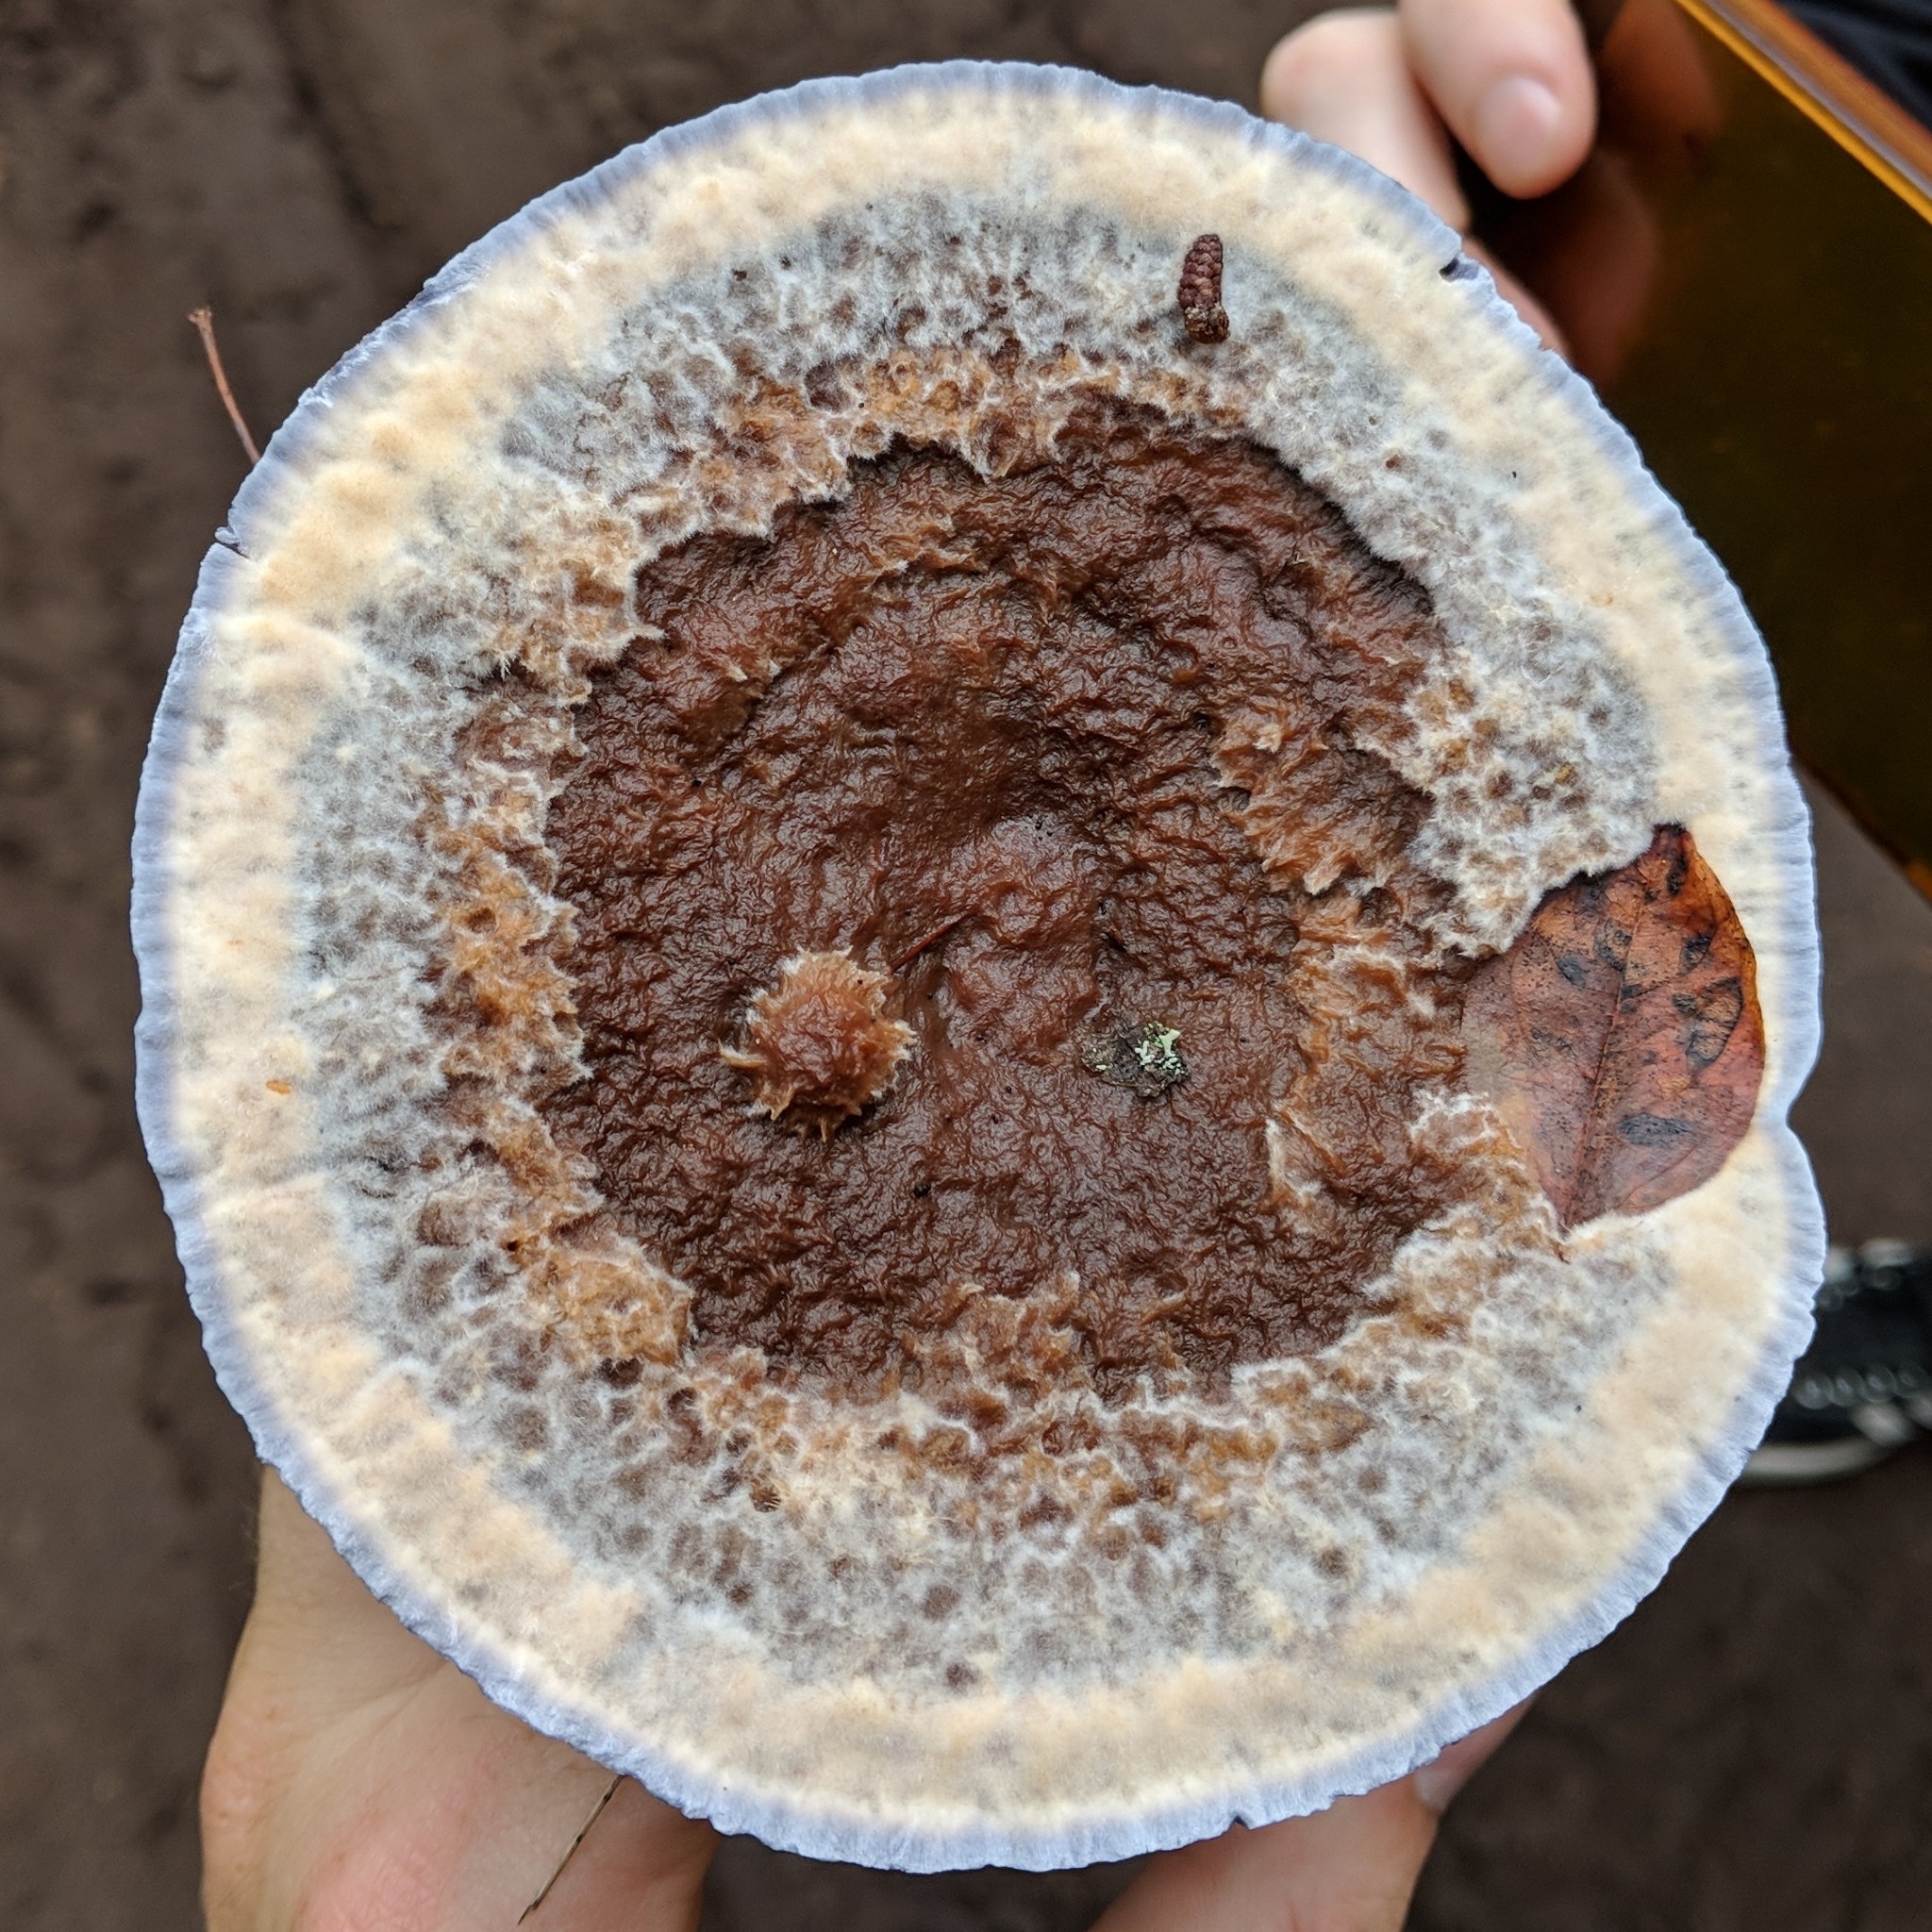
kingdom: Fungi
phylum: Basidiomycota
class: Agaricomycetes
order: Thelephorales
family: Bankeraceae
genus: Hydnellum
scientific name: Hydnellum caeruleum
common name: Blue corky spine fungus
